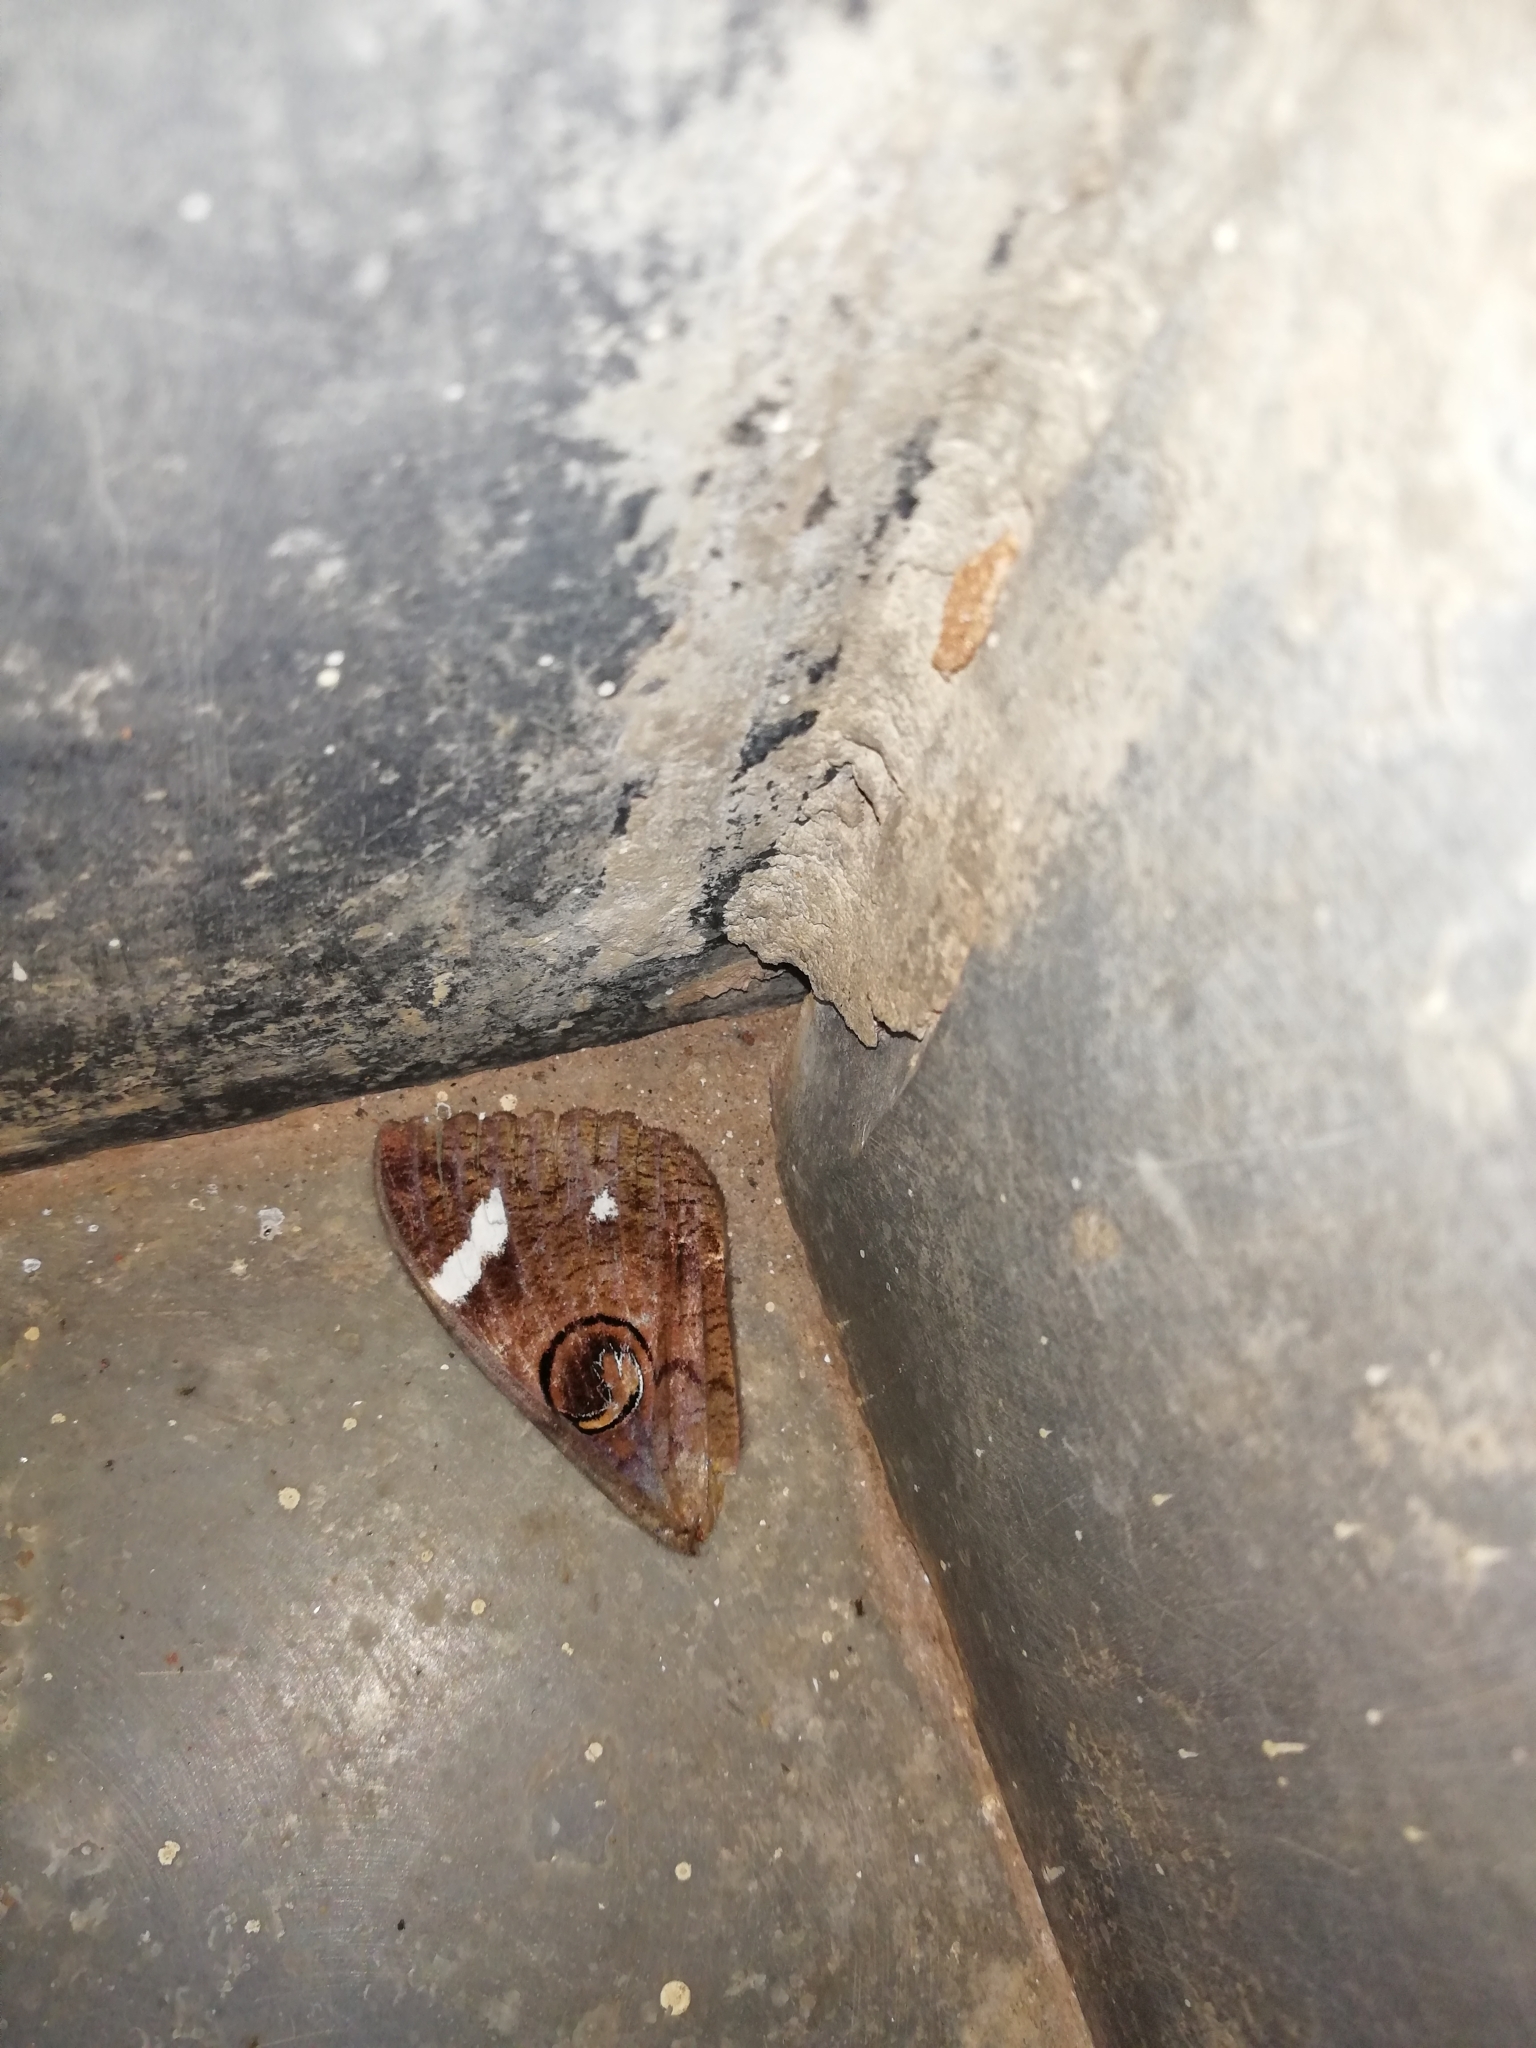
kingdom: Animalia
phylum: Arthropoda
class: Insecta
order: Lepidoptera
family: Erebidae
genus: Erebus
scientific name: Erebus hieroglyphica
